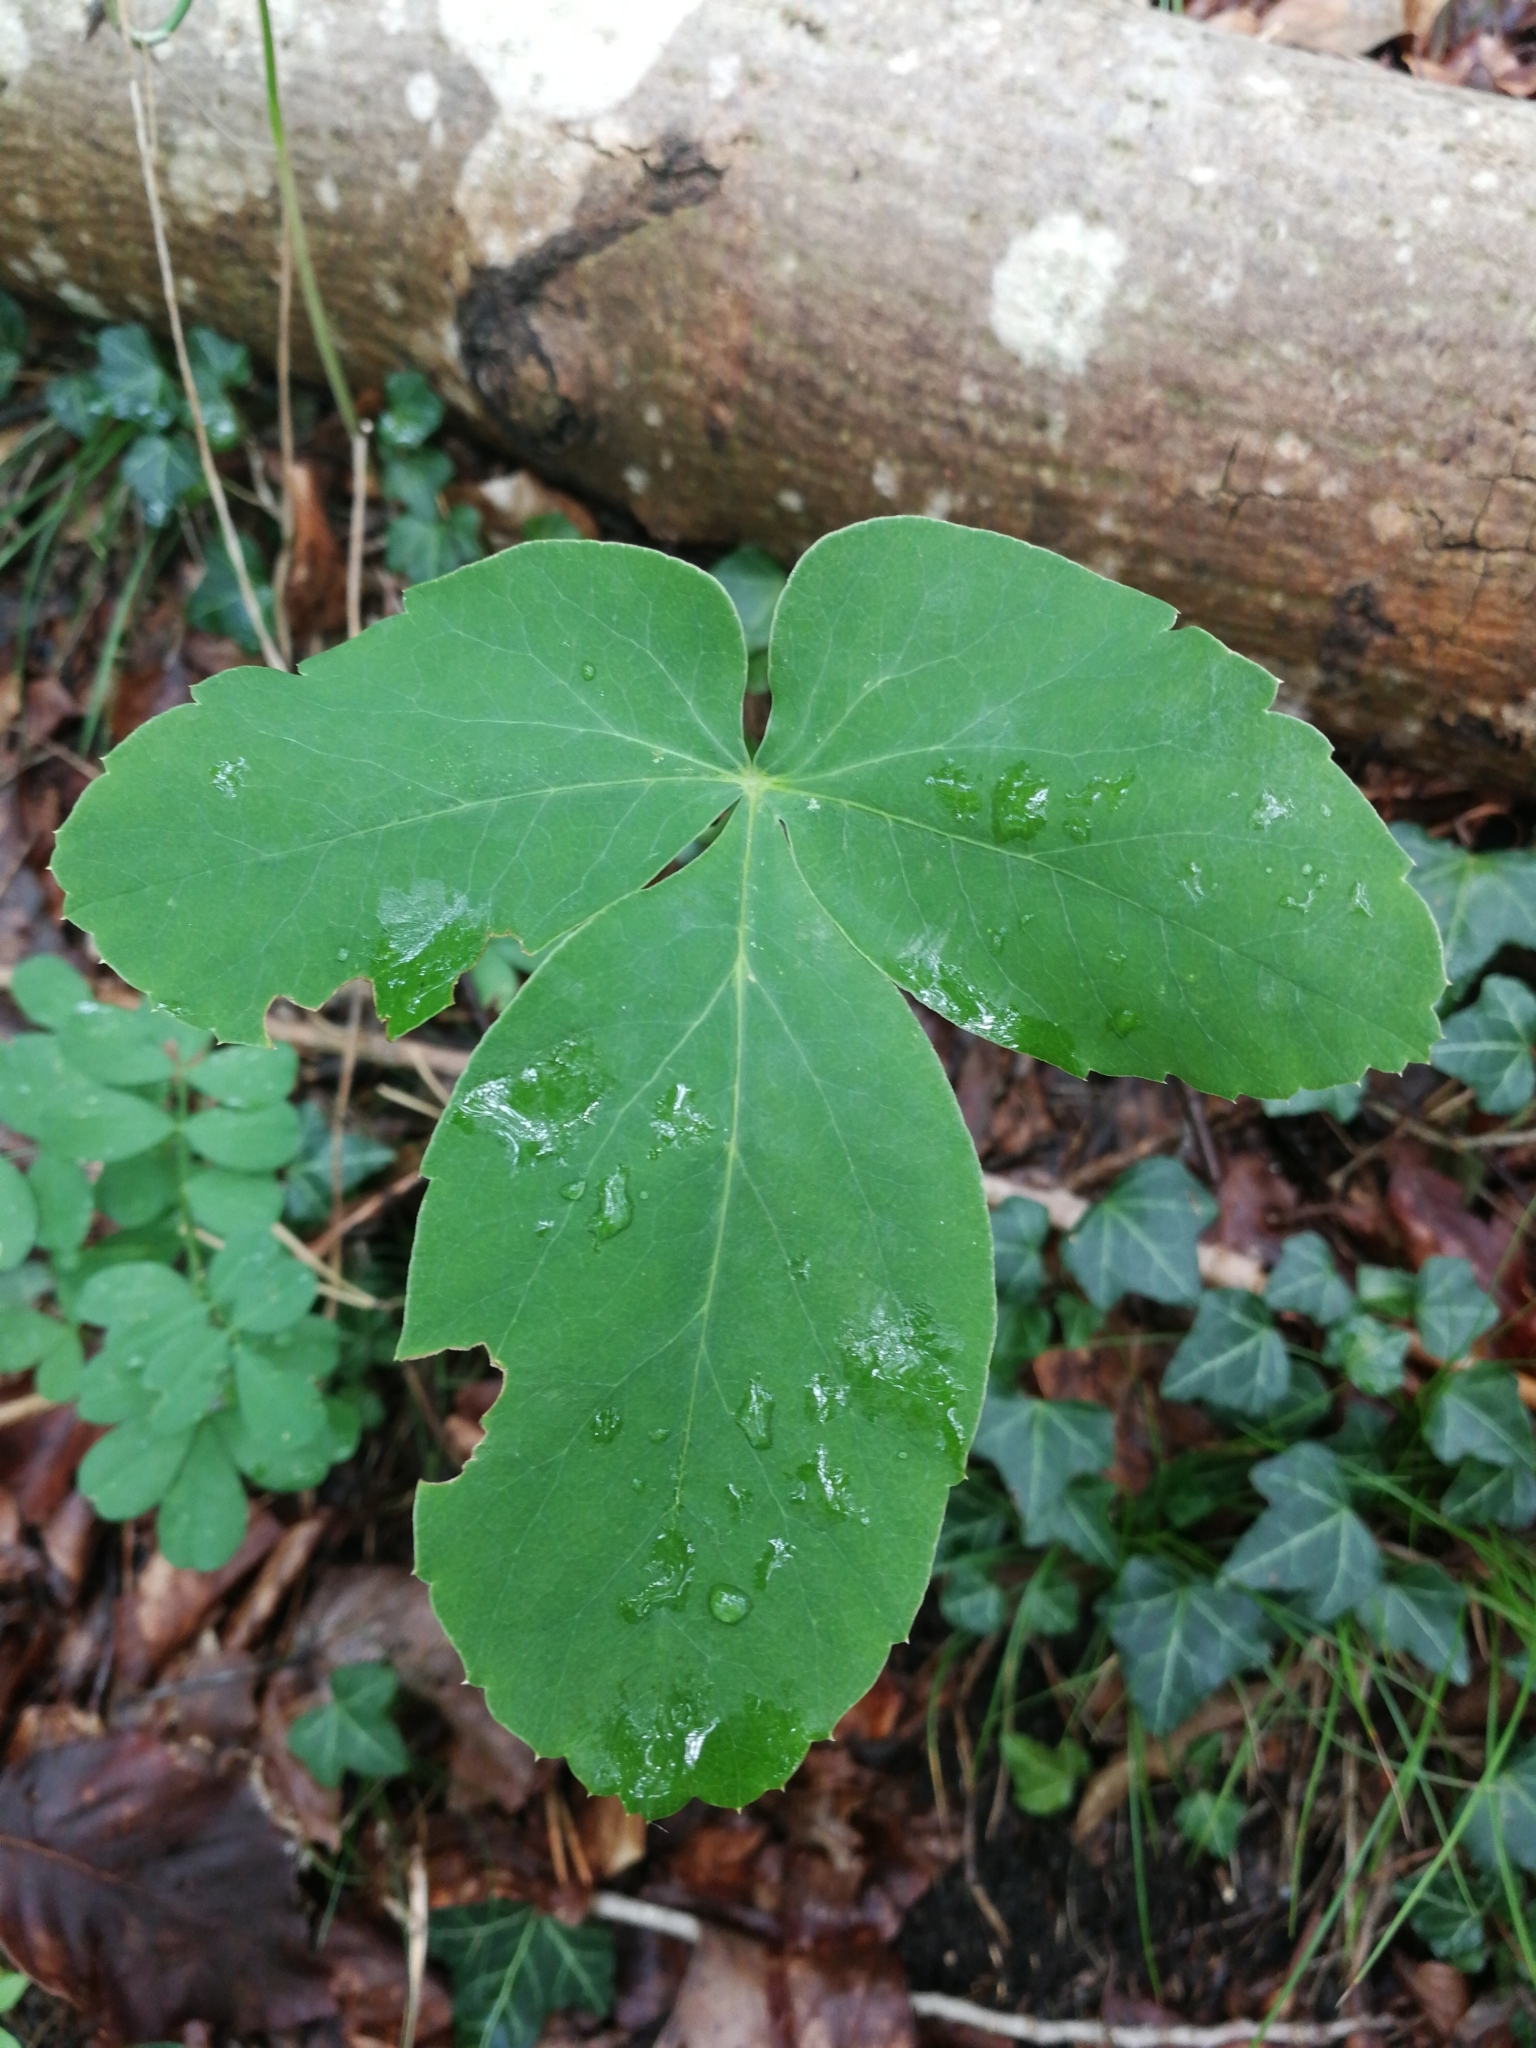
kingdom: Plantae
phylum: Tracheophyta
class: Magnoliopsida
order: Apiales
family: Apiaceae
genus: Laserpitium
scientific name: Laserpitium latifolium
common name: Broadleaf sermountain
